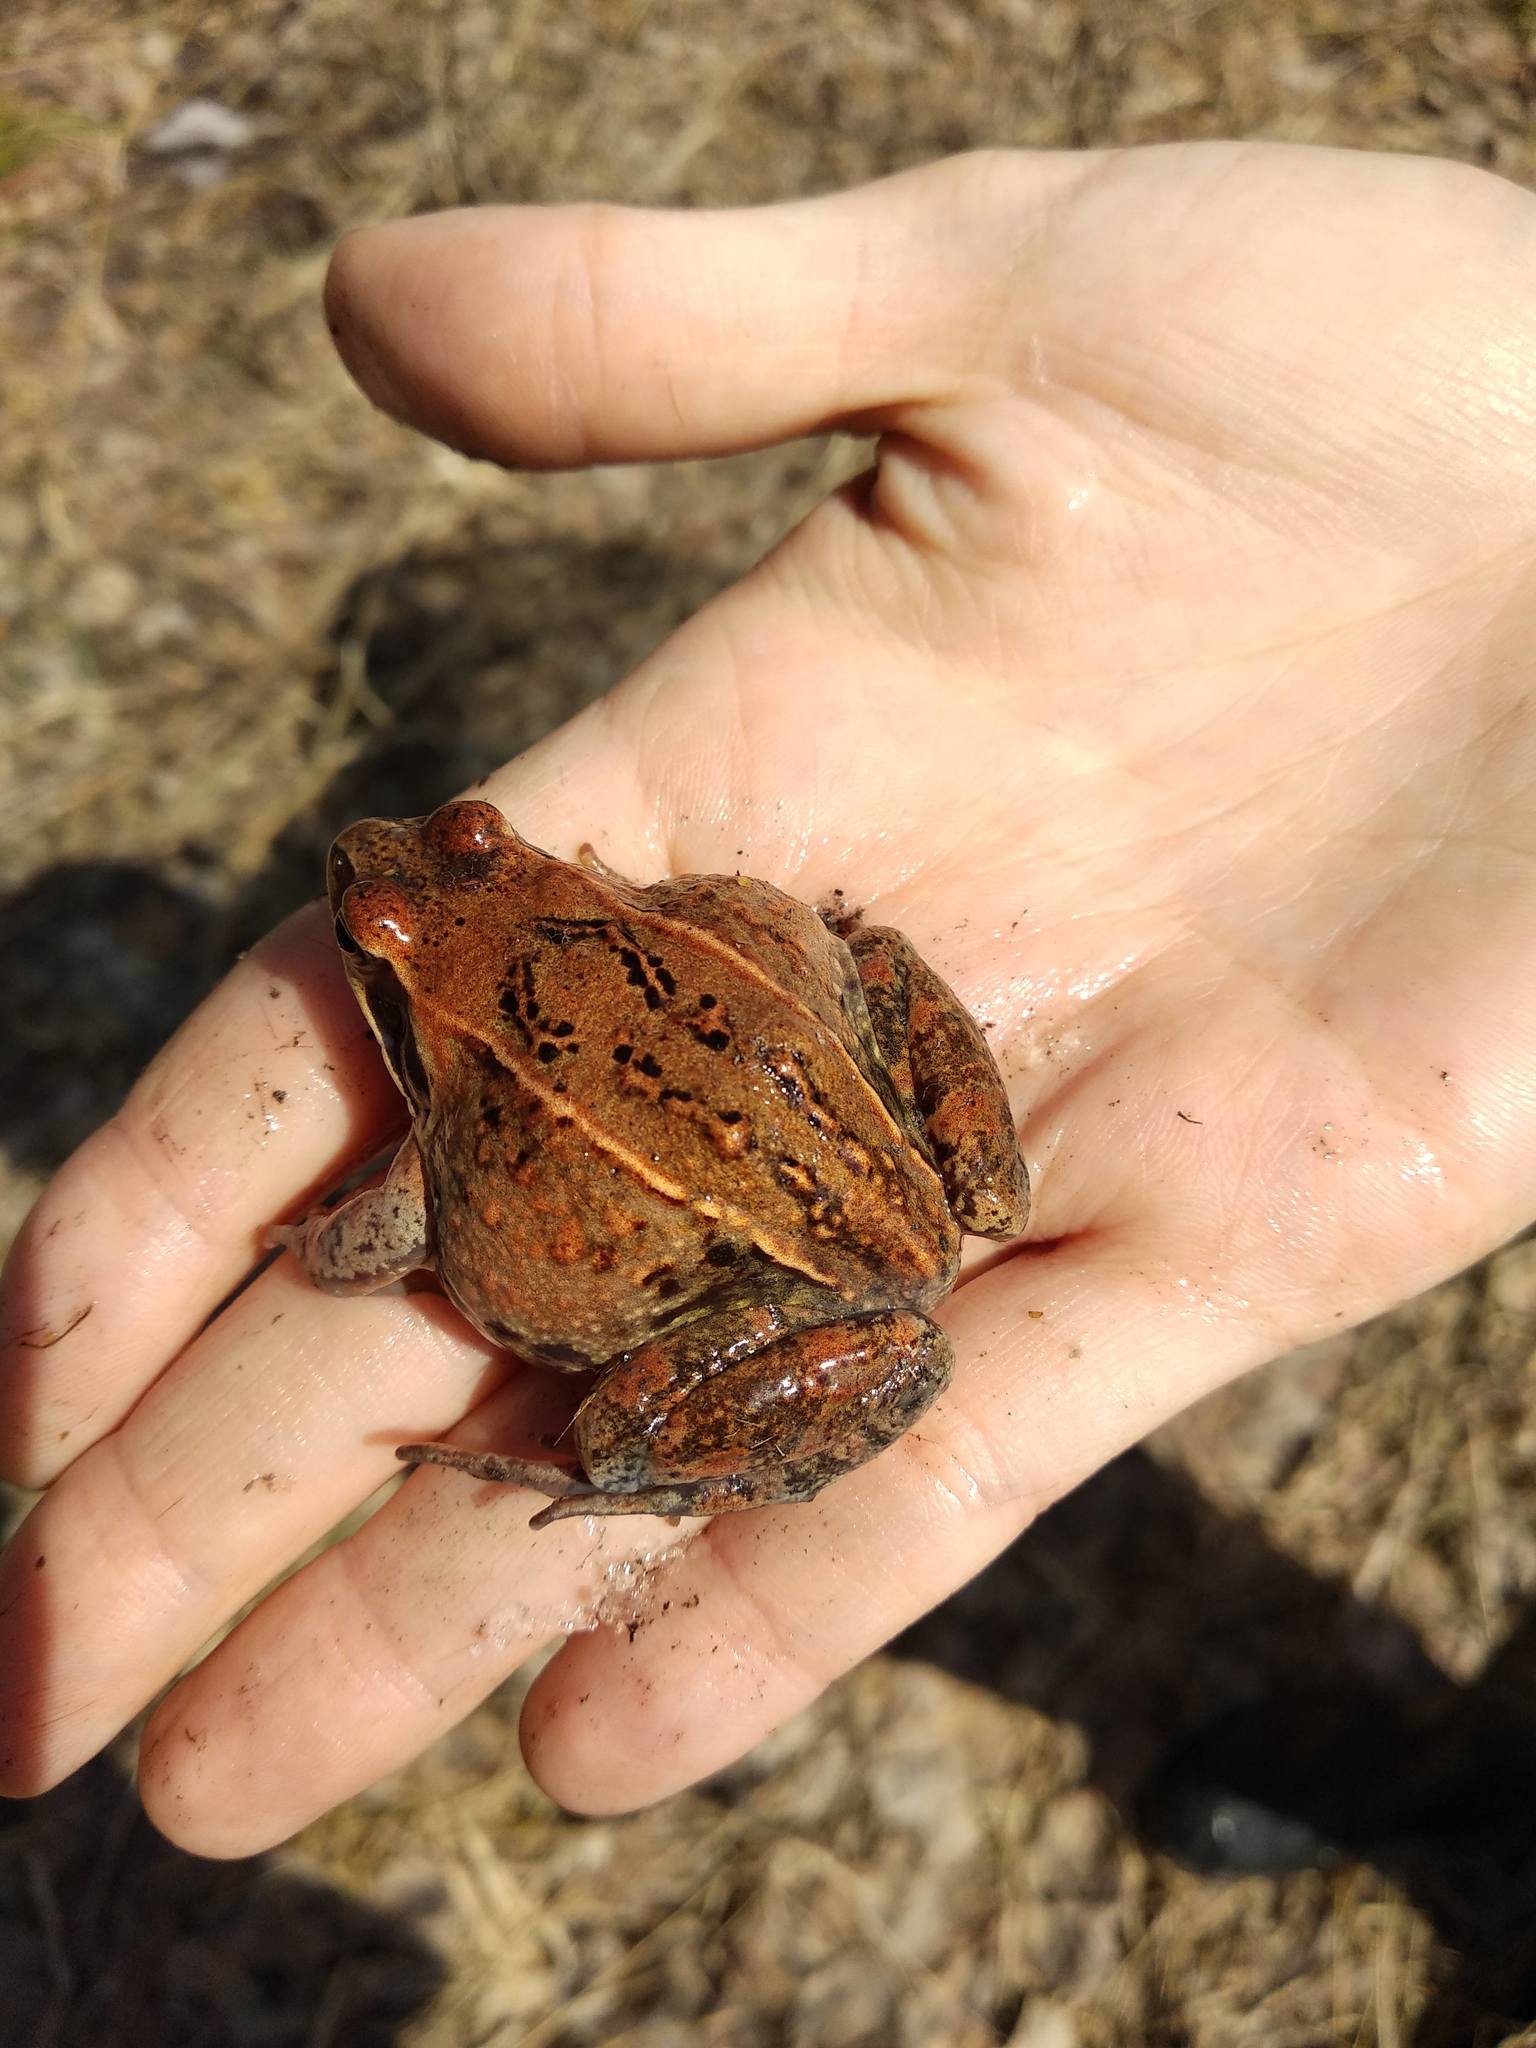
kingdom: Animalia
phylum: Chordata
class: Amphibia
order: Anura
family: Ranidae
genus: Rana
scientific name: Rana arvalis
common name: Moor frog
